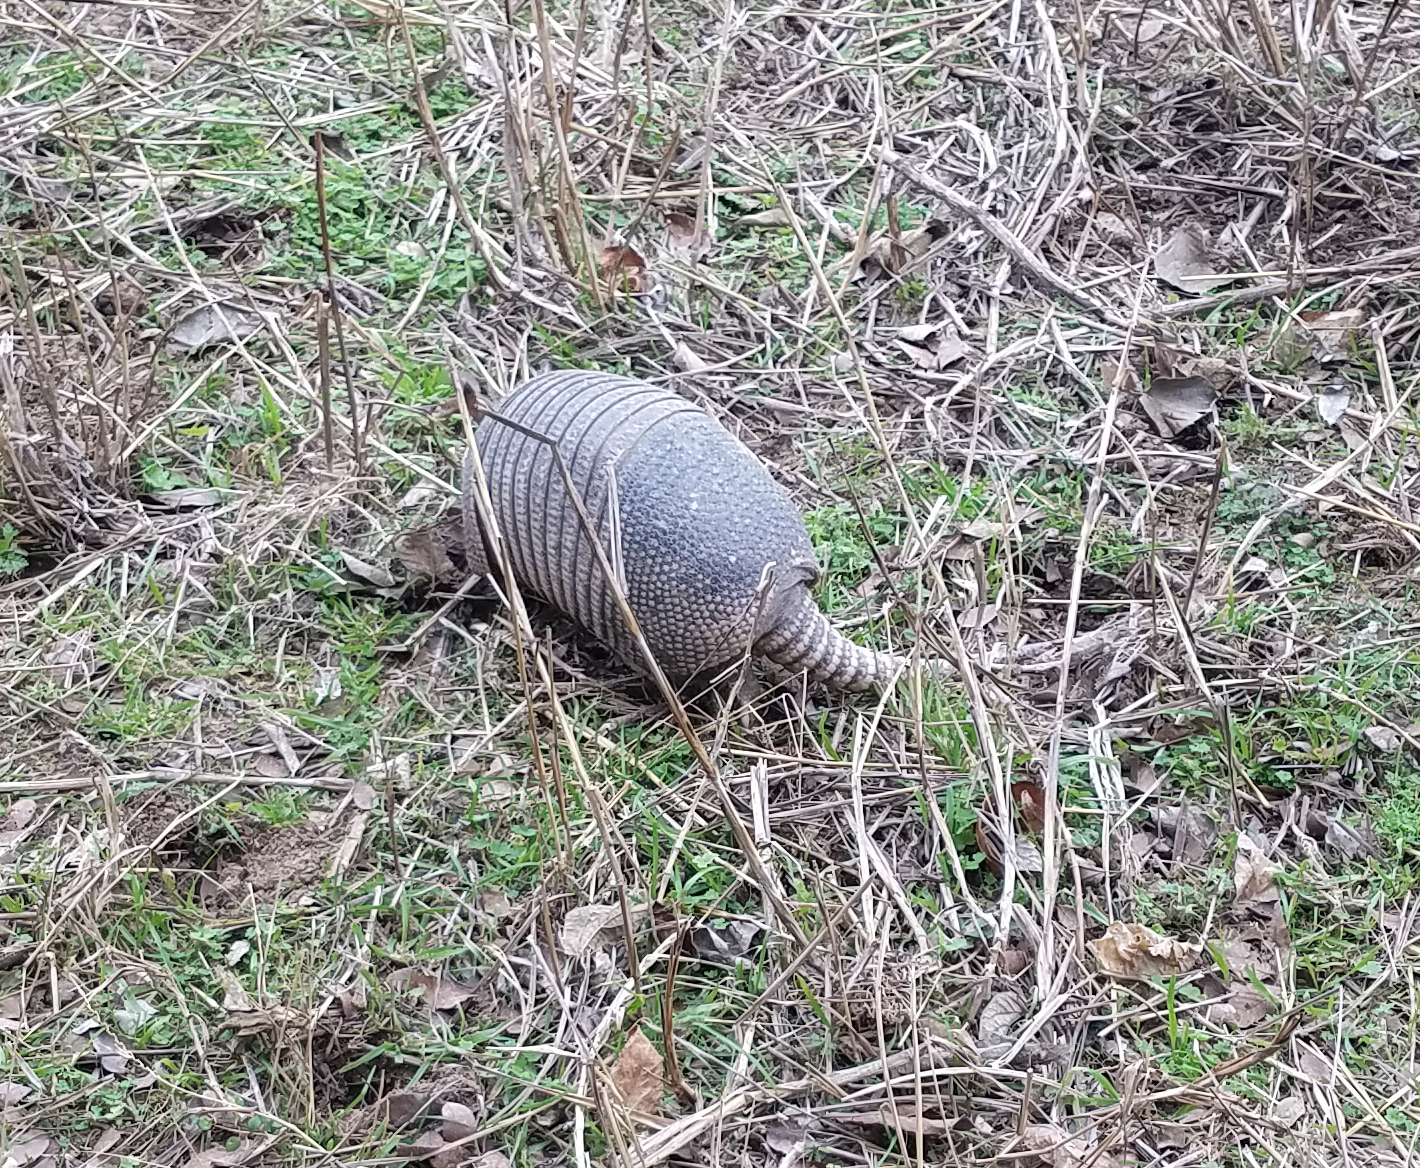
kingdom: Animalia
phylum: Chordata
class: Mammalia
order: Cingulata
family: Dasypodidae
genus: Dasypus
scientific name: Dasypus novemcinctus
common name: Nine-banded armadillo
